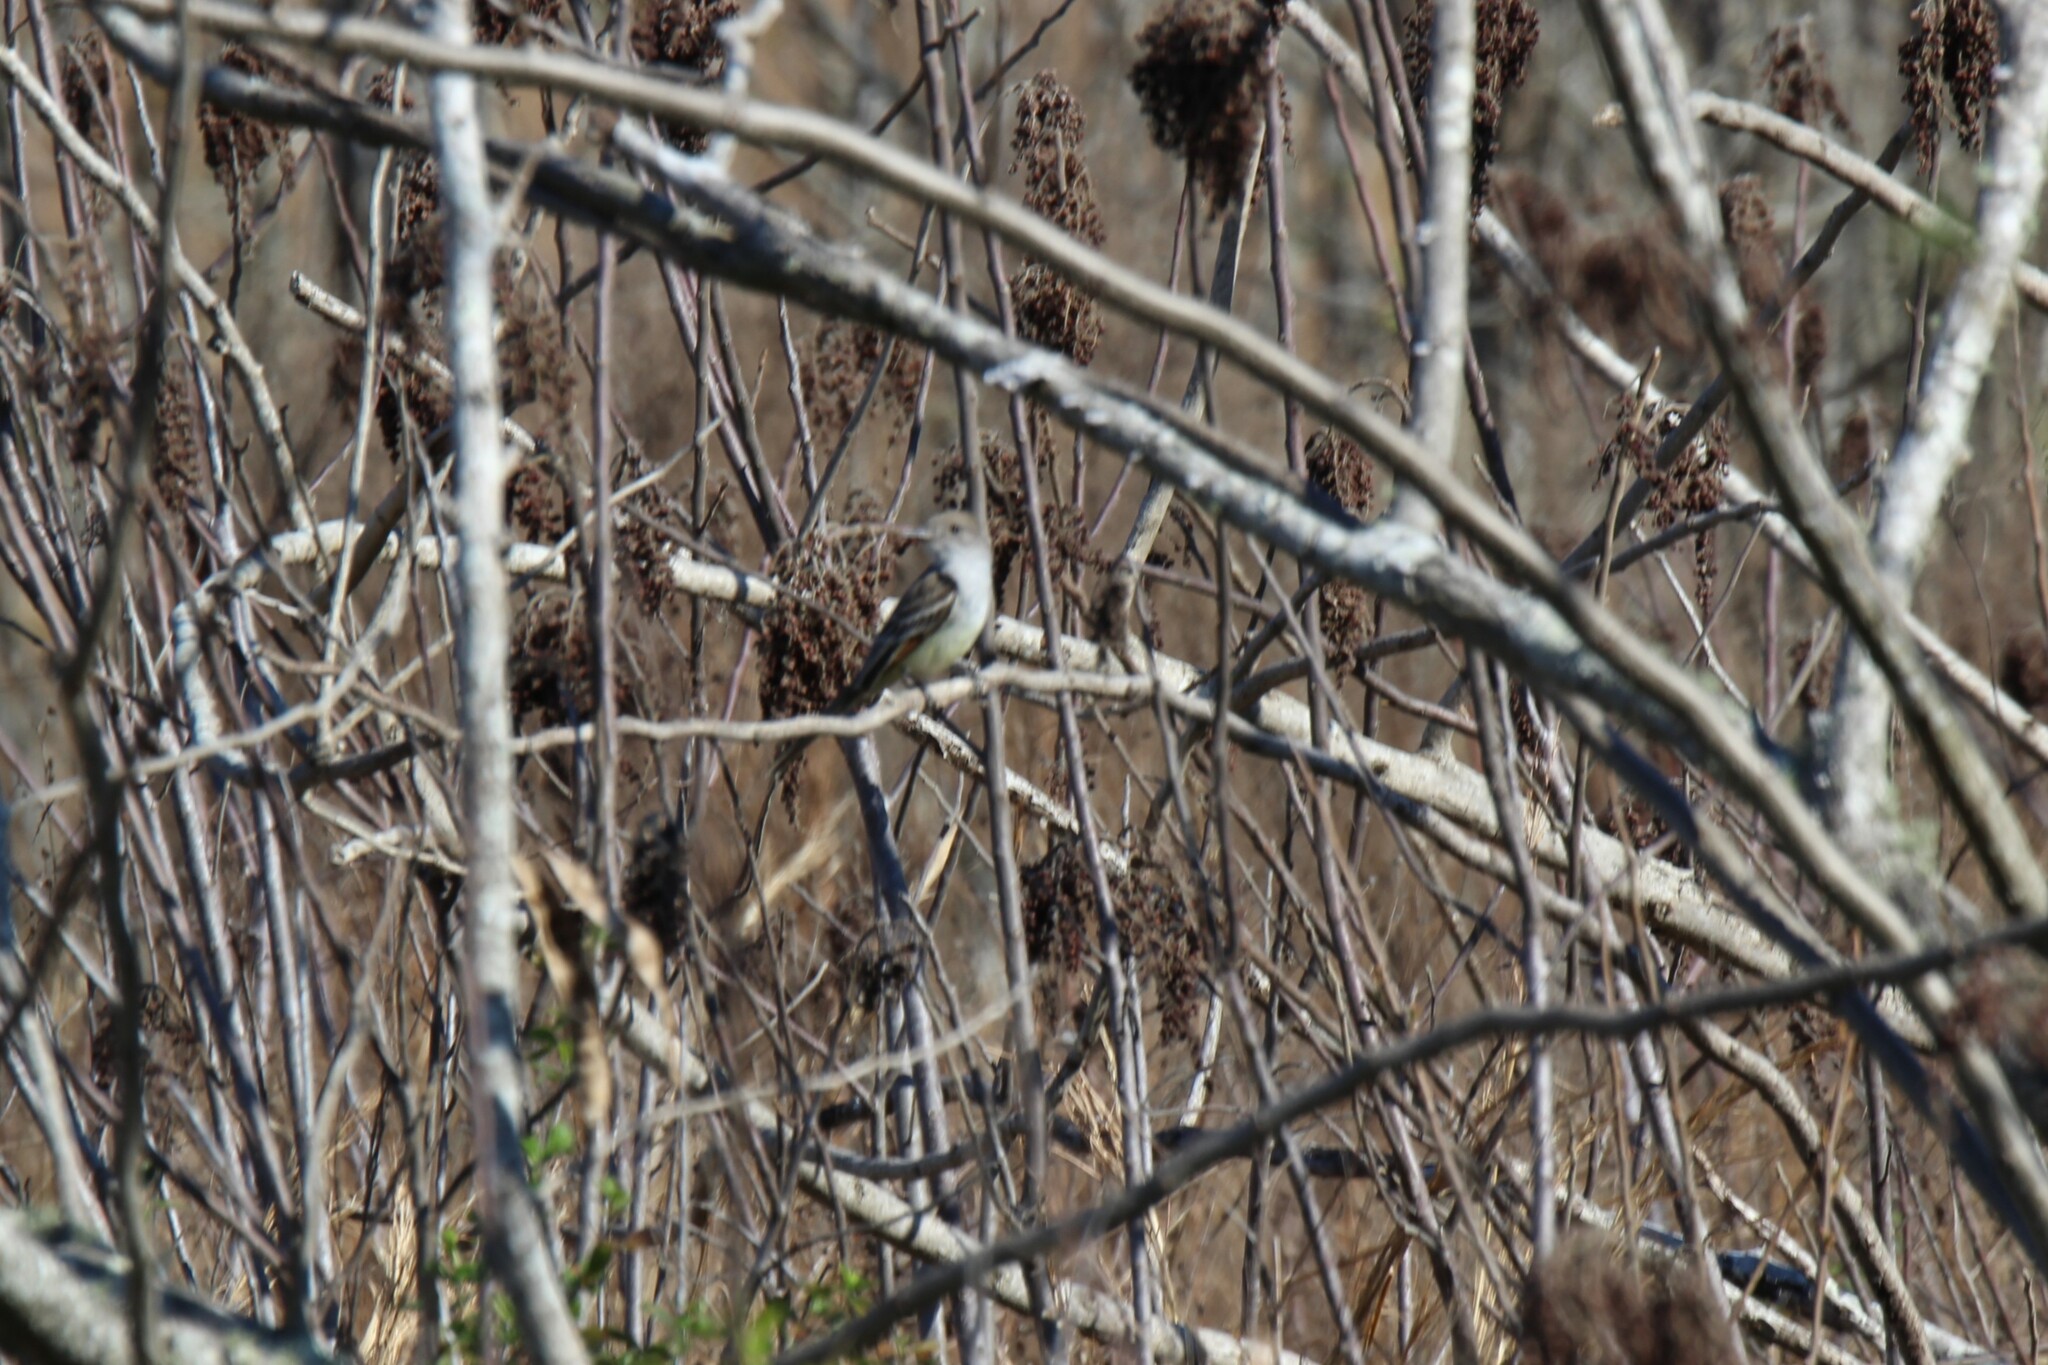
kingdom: Animalia
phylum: Chordata
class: Aves
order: Passeriformes
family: Tyrannidae
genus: Myiarchus
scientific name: Myiarchus cinerascens
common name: Ash-throated flycatcher
